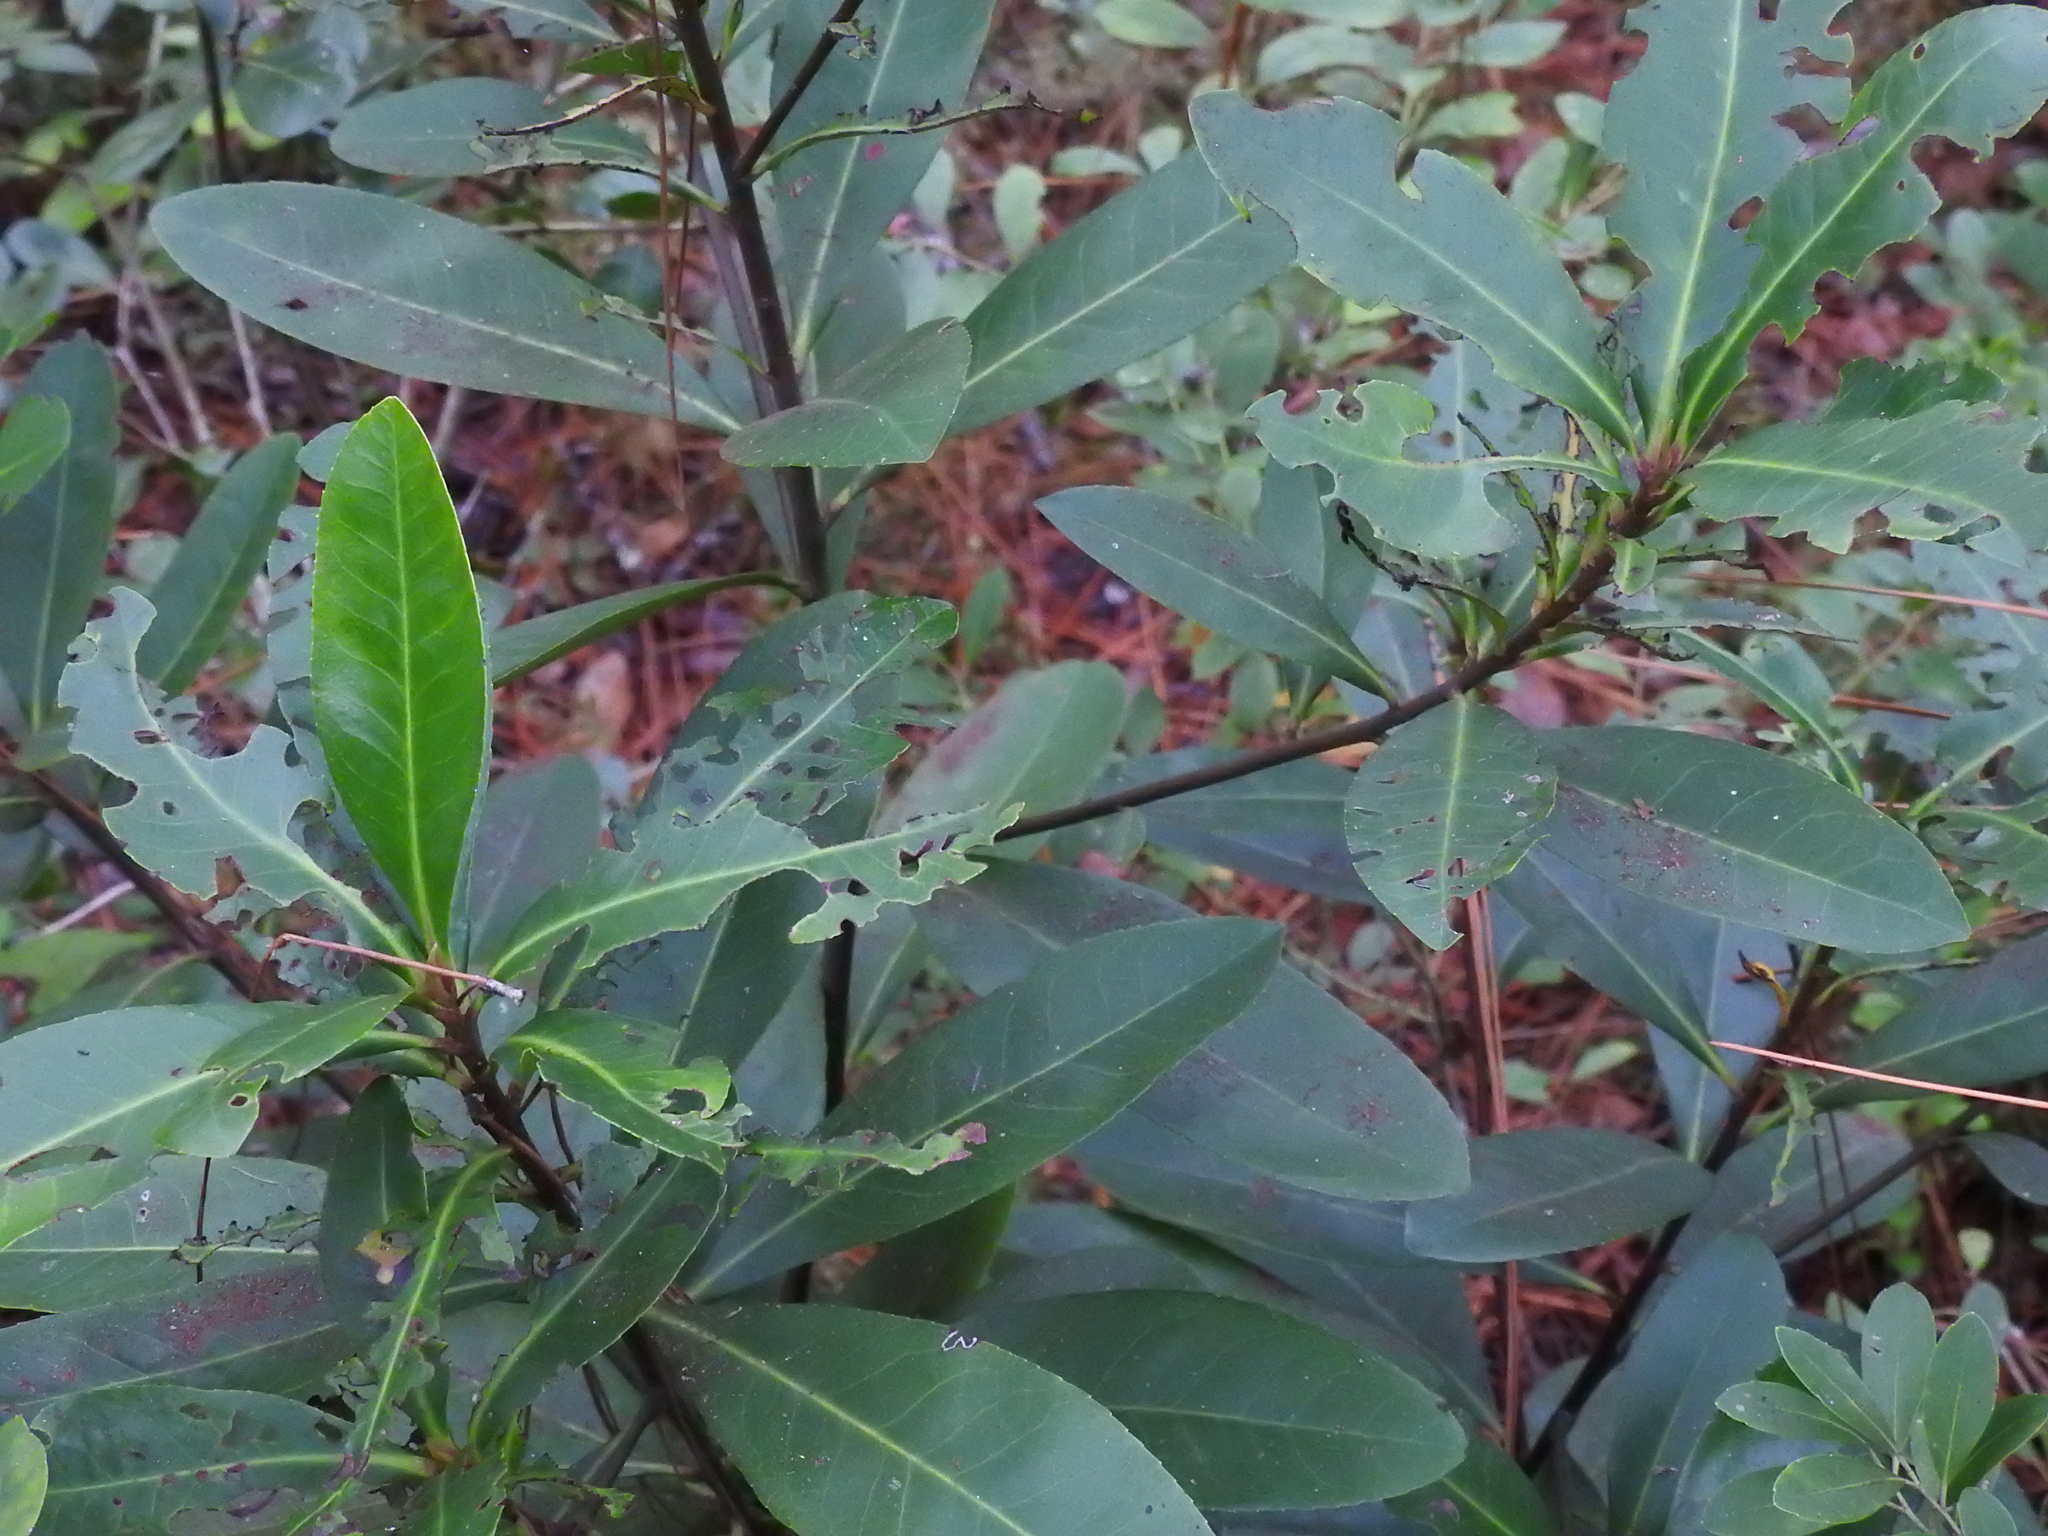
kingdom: Plantae
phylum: Tracheophyta
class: Magnoliopsida
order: Ericales
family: Theaceae
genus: Gordonia
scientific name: Gordonia lasianthus
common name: Loblolly bay
